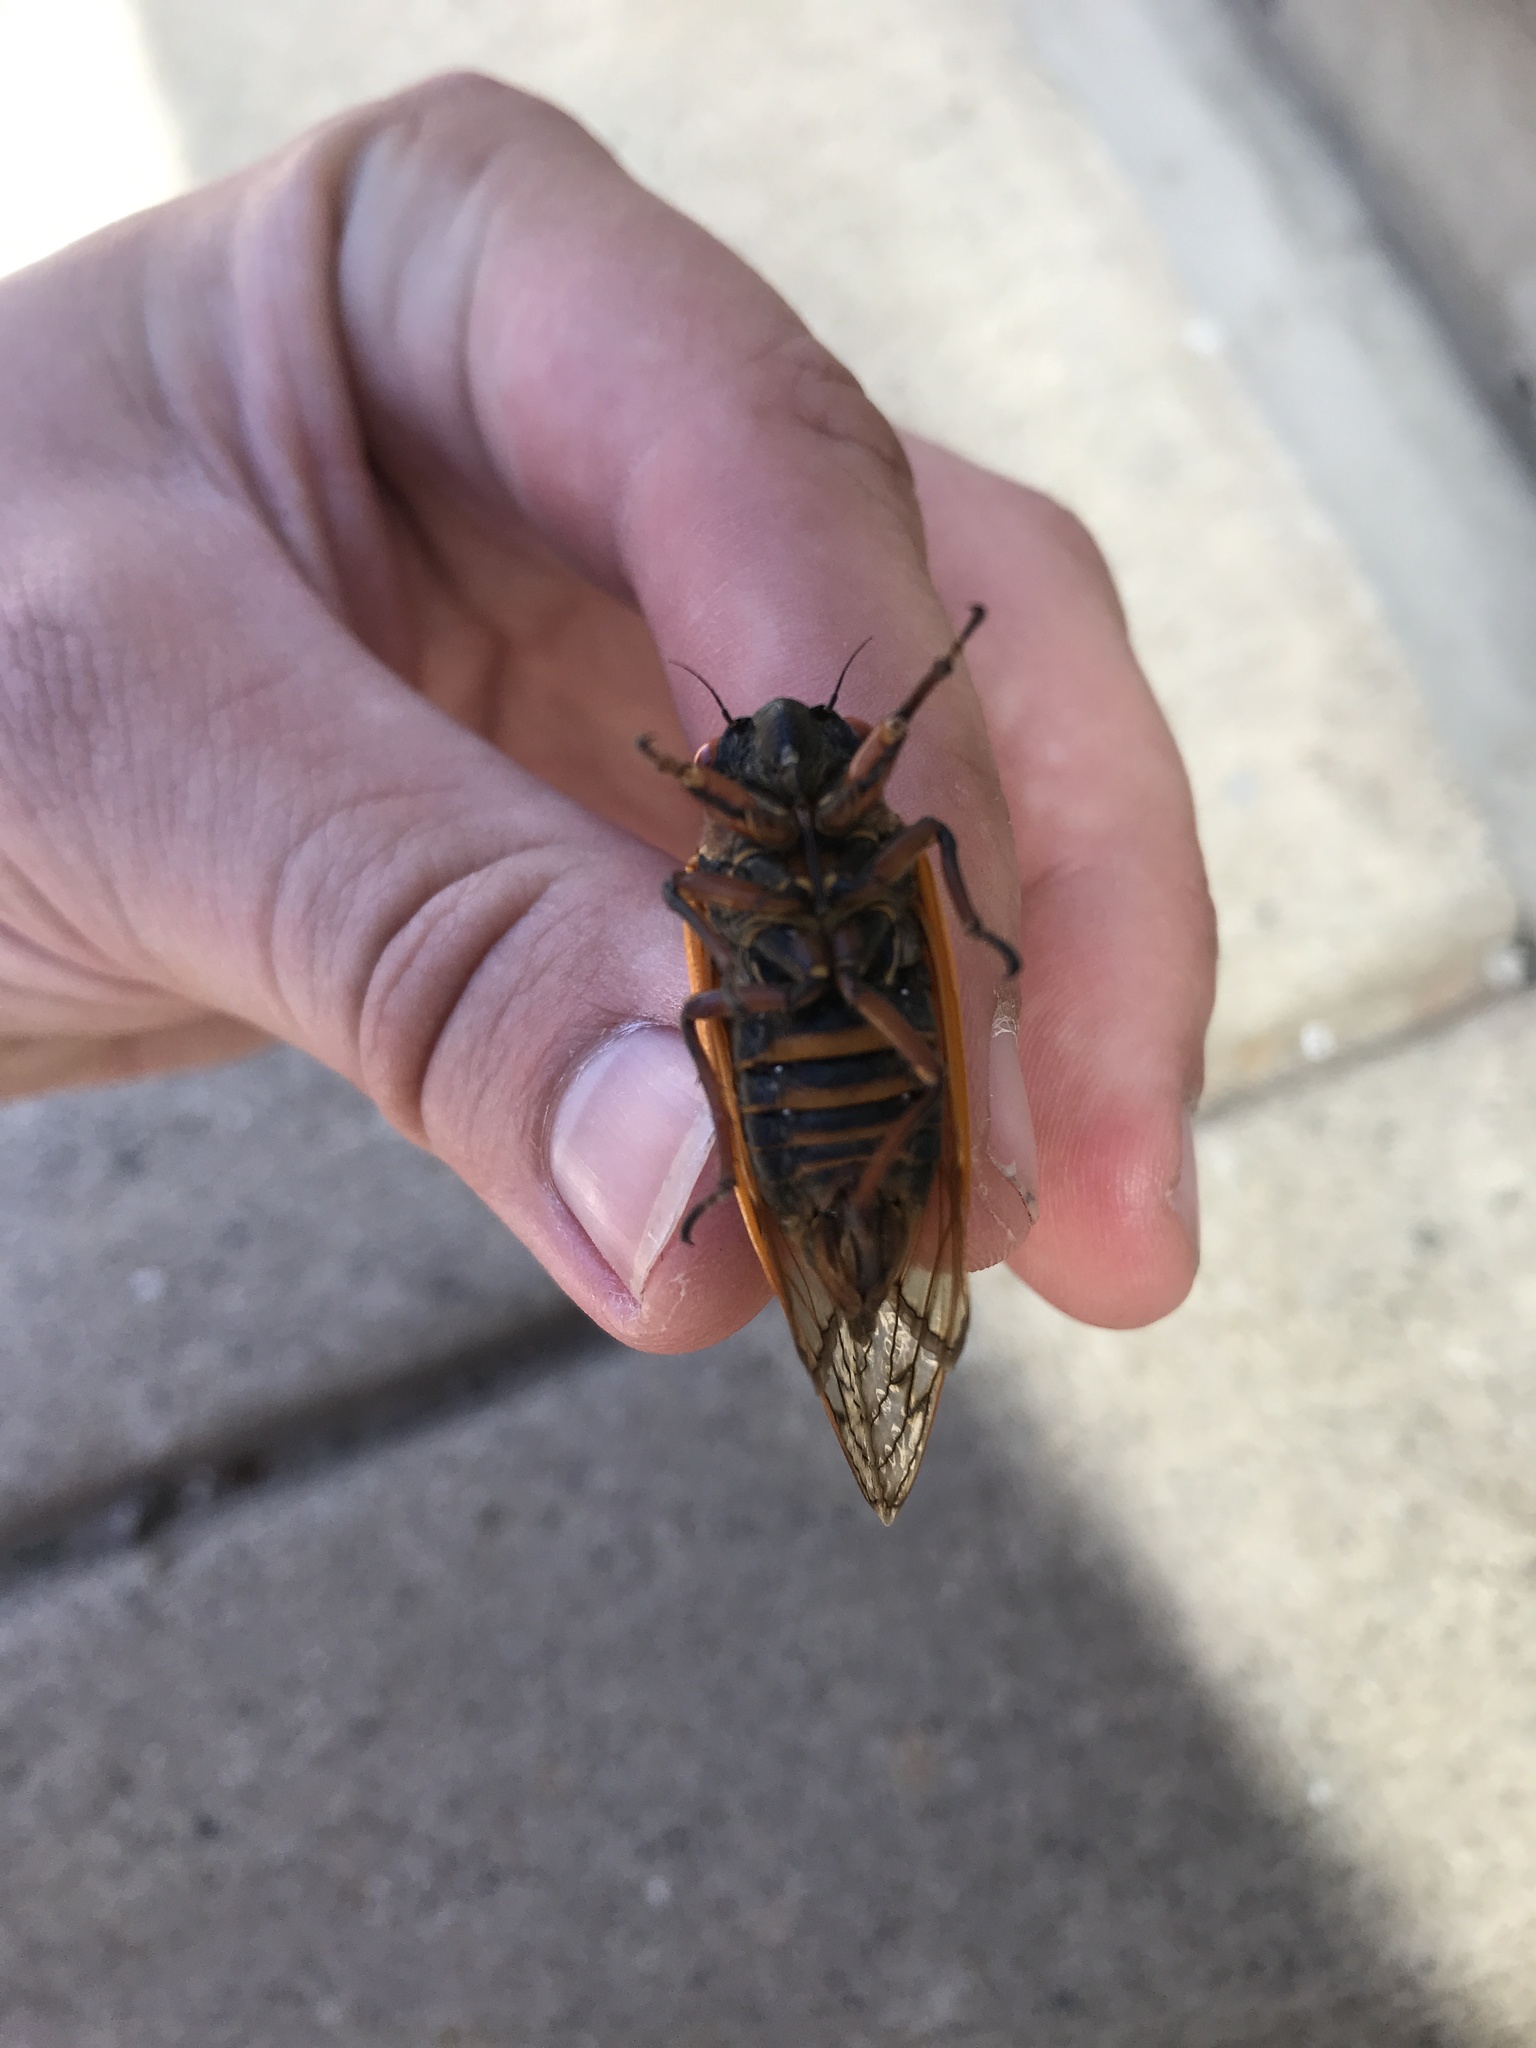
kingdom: Animalia
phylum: Arthropoda
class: Insecta
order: Hemiptera
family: Cicadidae
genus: Magicicada
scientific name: Magicicada septendecim
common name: Periodical cicada
